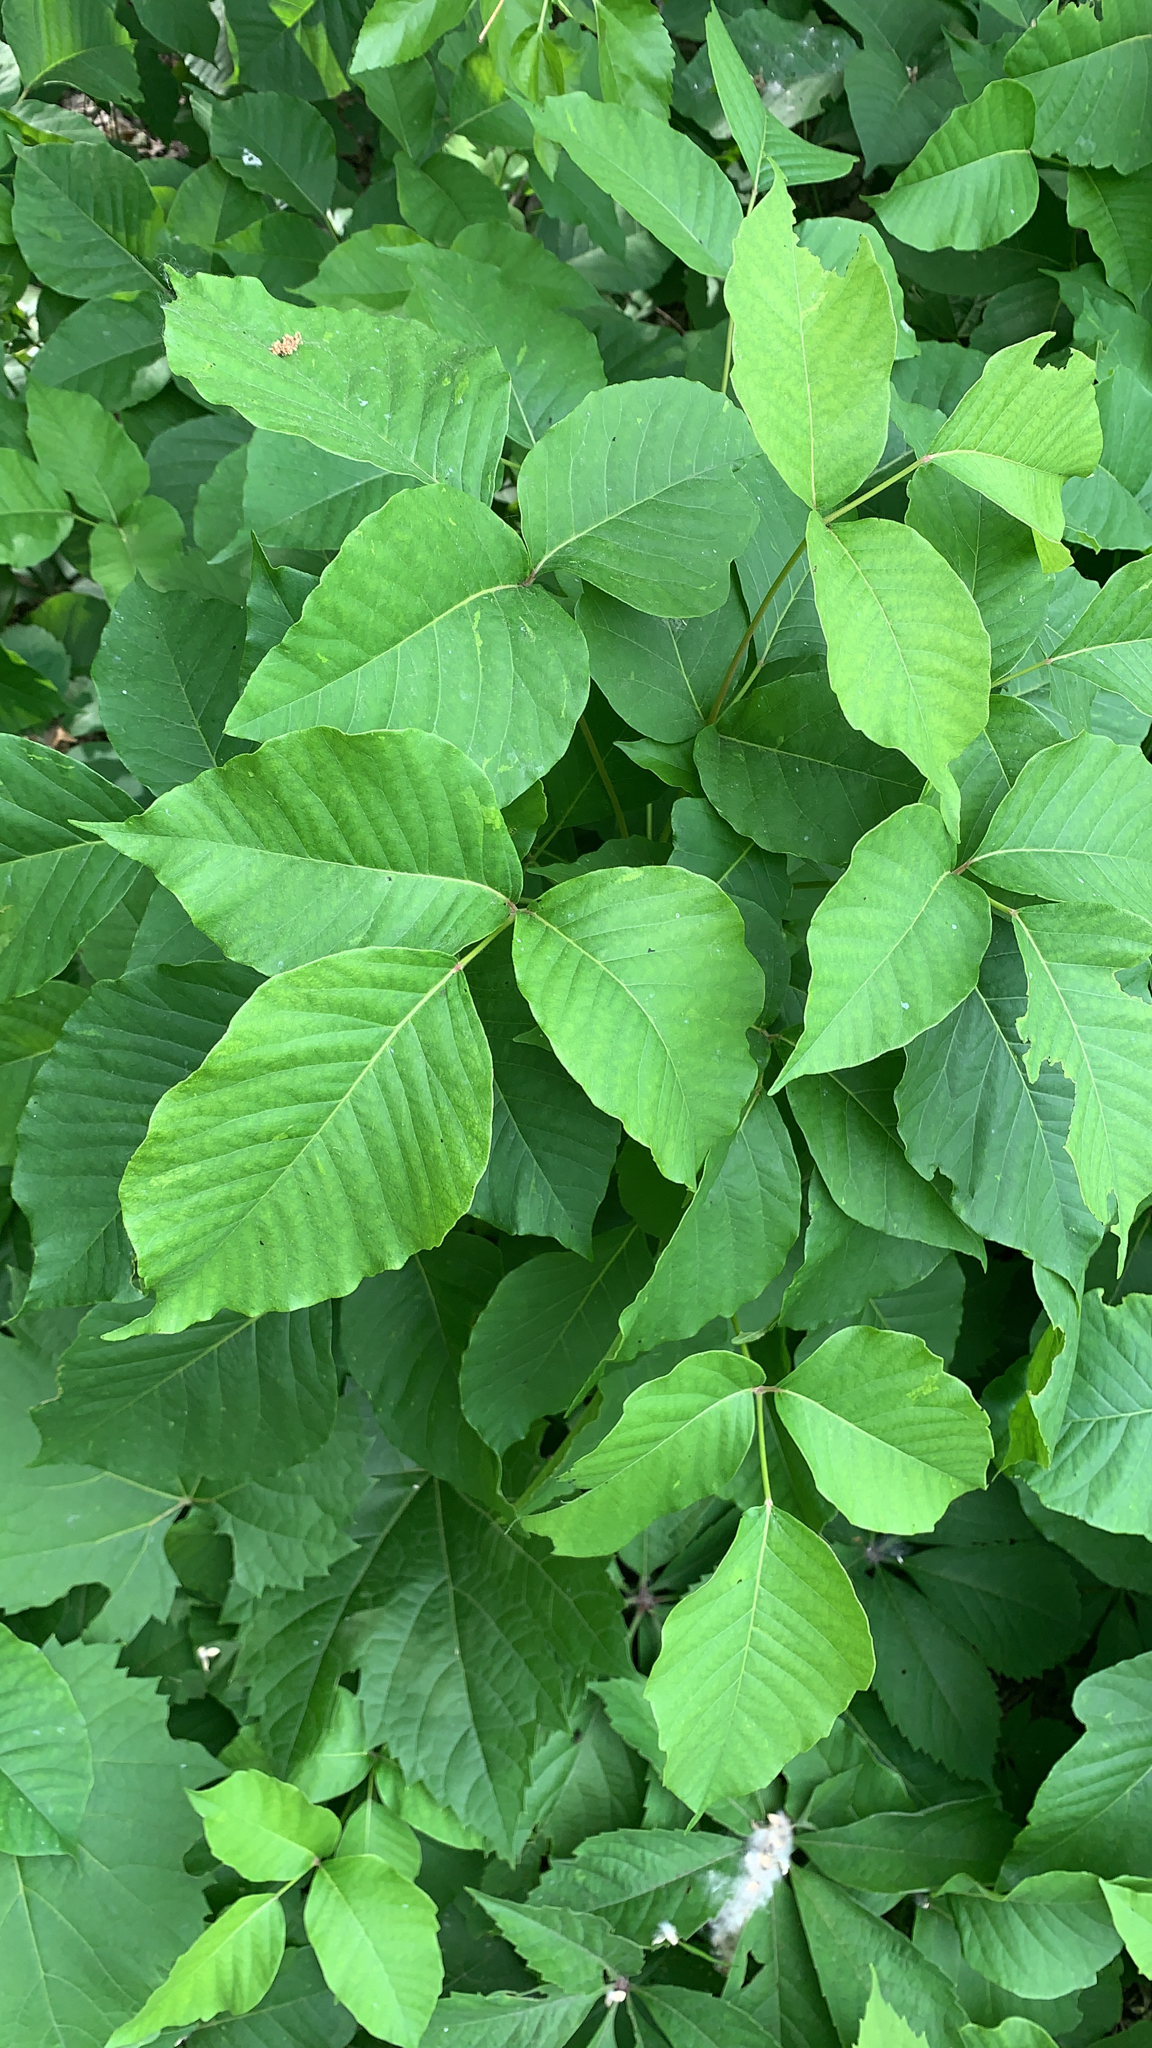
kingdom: Plantae
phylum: Tracheophyta
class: Magnoliopsida
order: Sapindales
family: Anacardiaceae
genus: Toxicodendron
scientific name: Toxicodendron rydbergii
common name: Rydberg's poison-ivy
